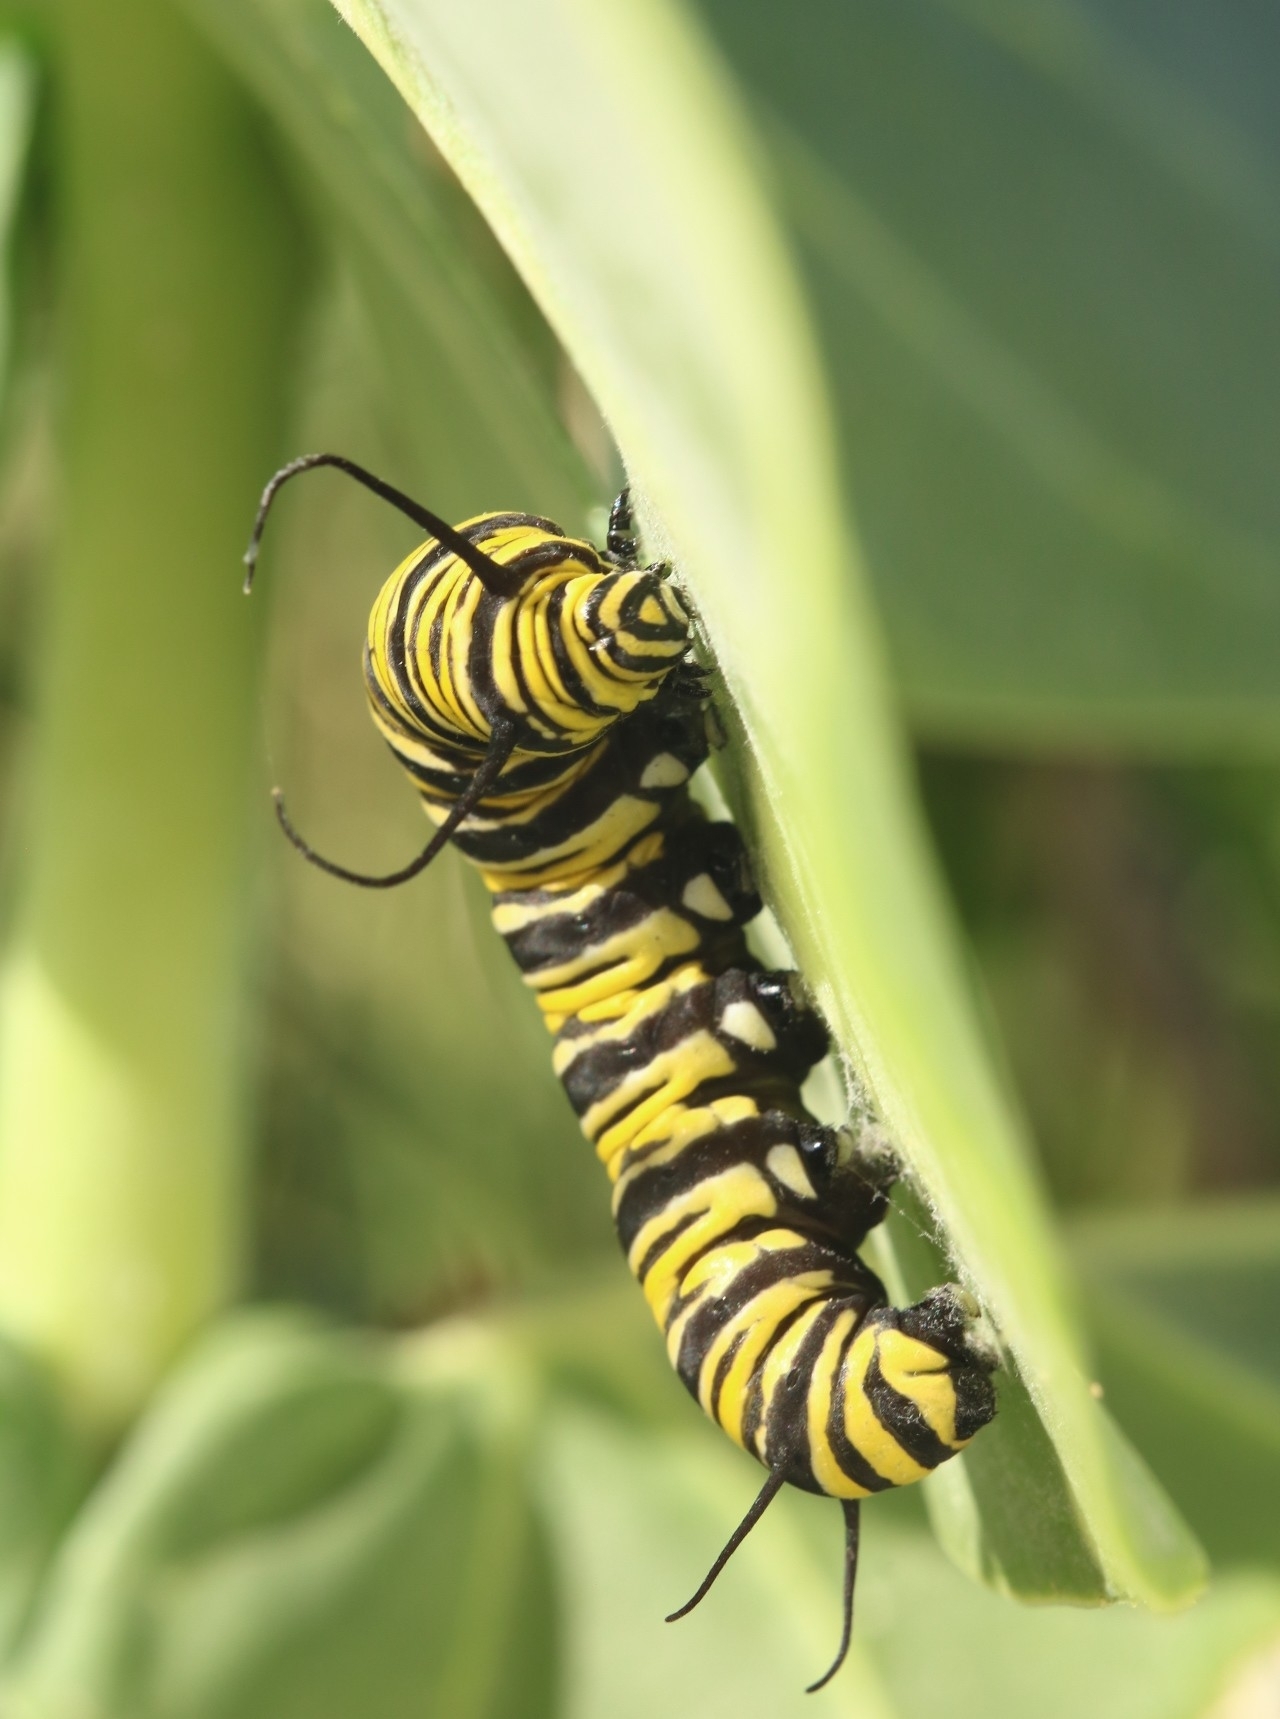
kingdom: Animalia
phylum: Arthropoda
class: Insecta
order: Lepidoptera
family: Nymphalidae
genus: Danaus
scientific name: Danaus plexippus
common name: Monarch
